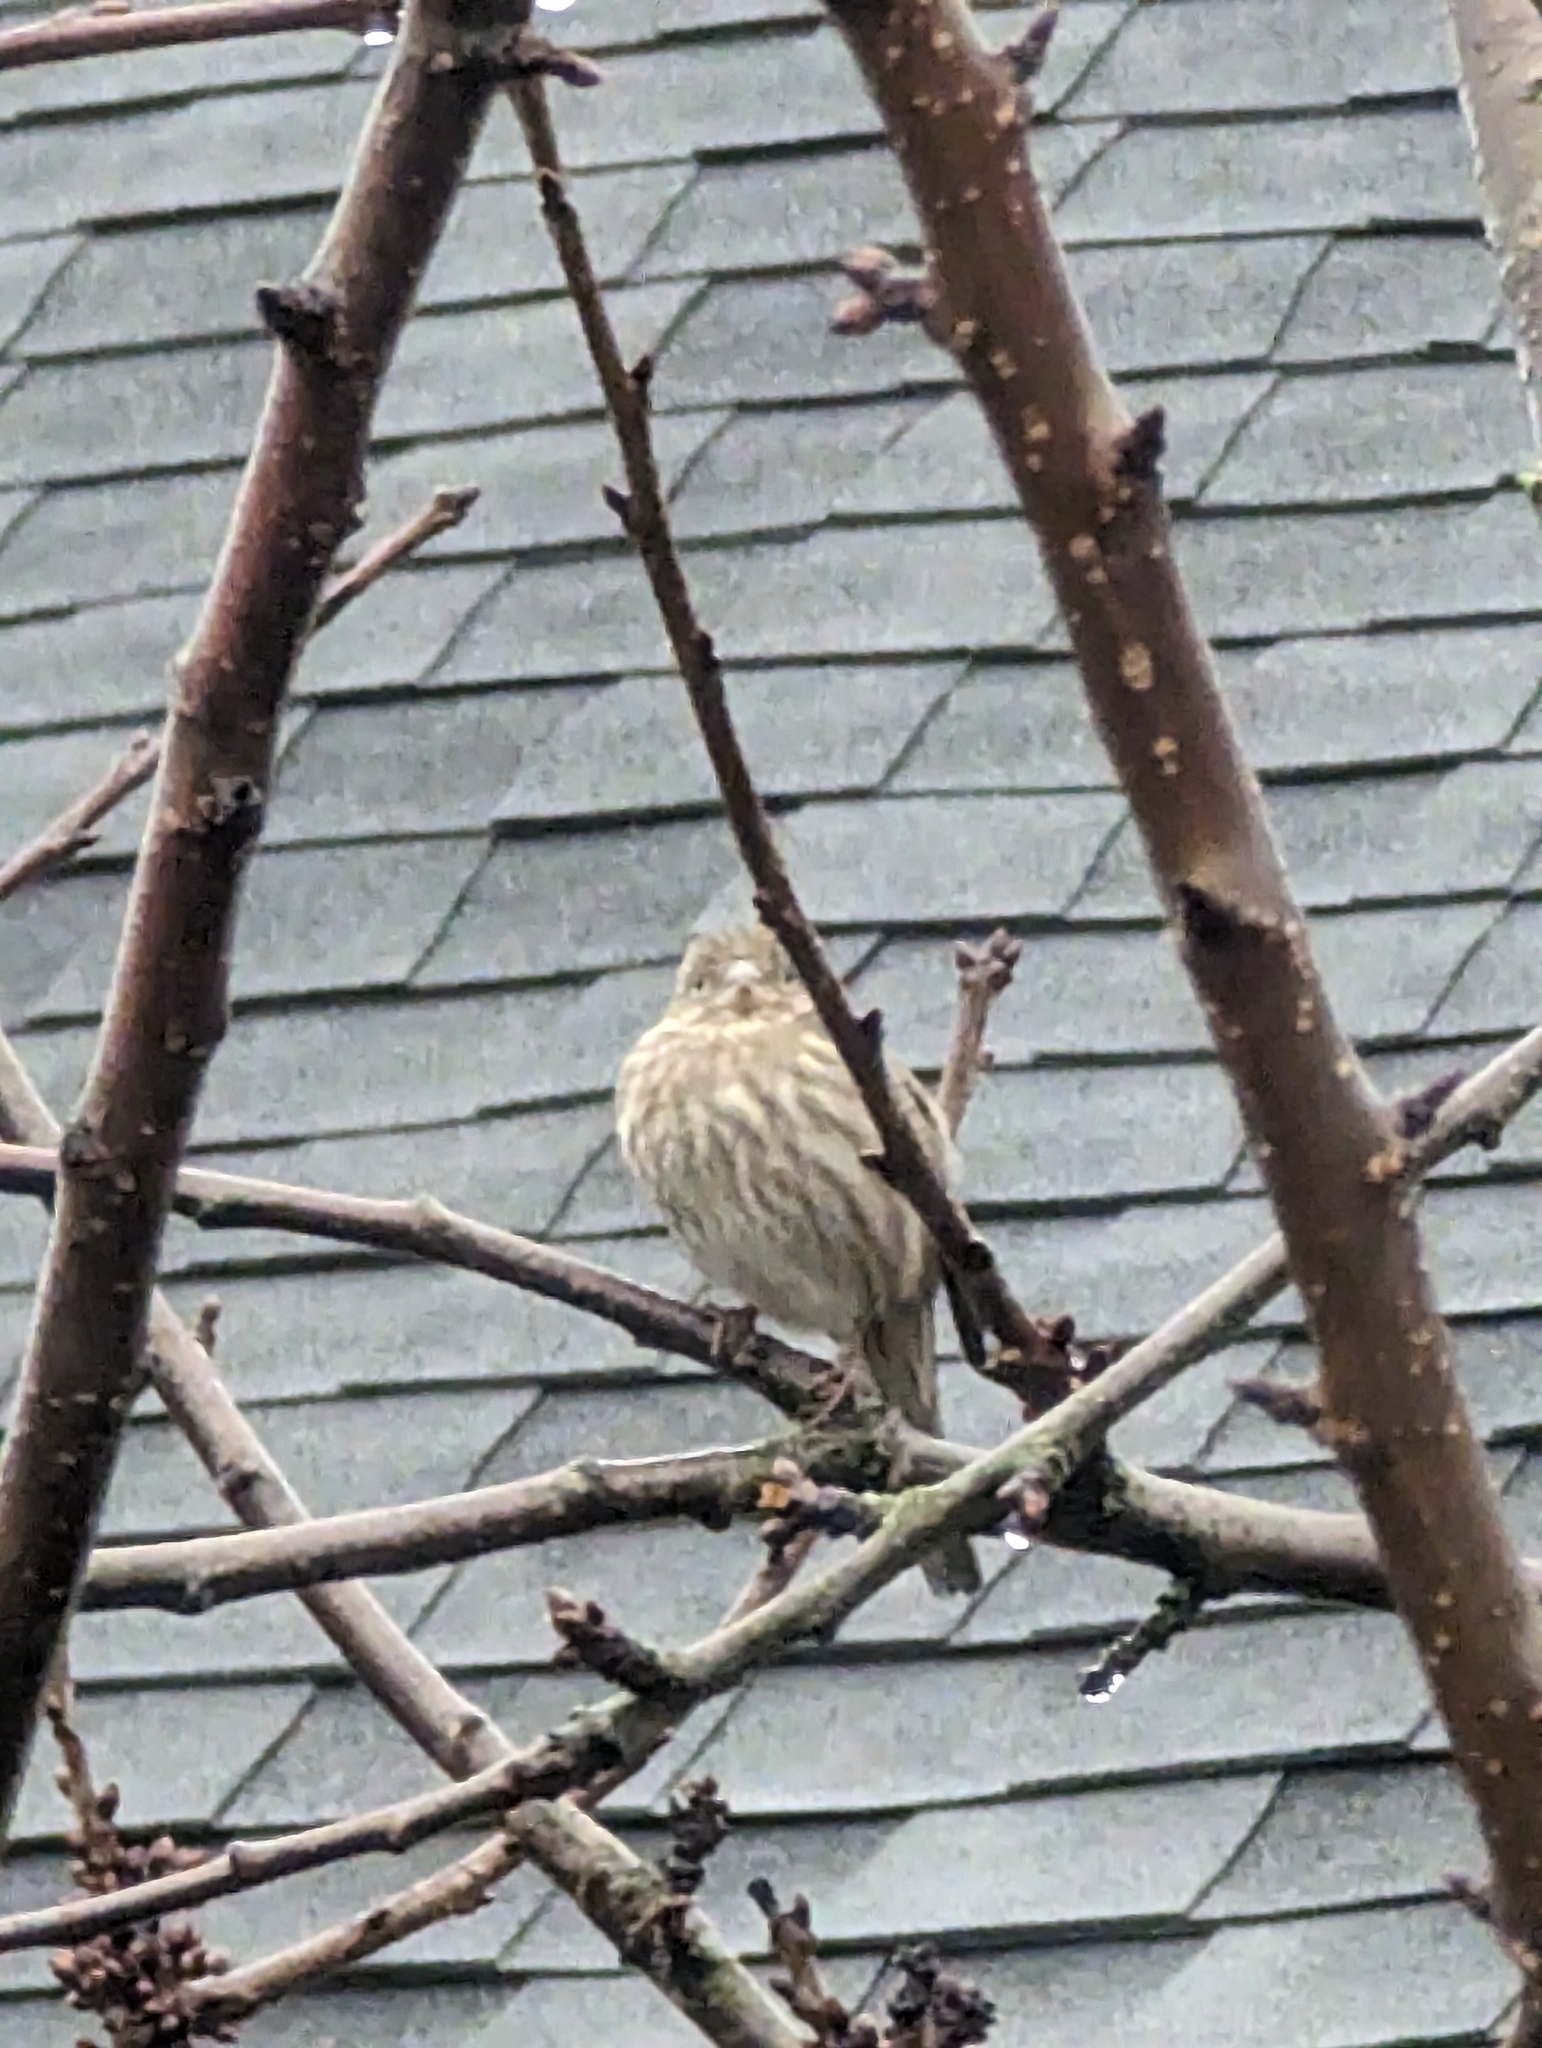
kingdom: Animalia
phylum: Chordata
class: Aves
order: Passeriformes
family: Fringillidae
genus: Haemorhous
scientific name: Haemorhous mexicanus
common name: House finch
